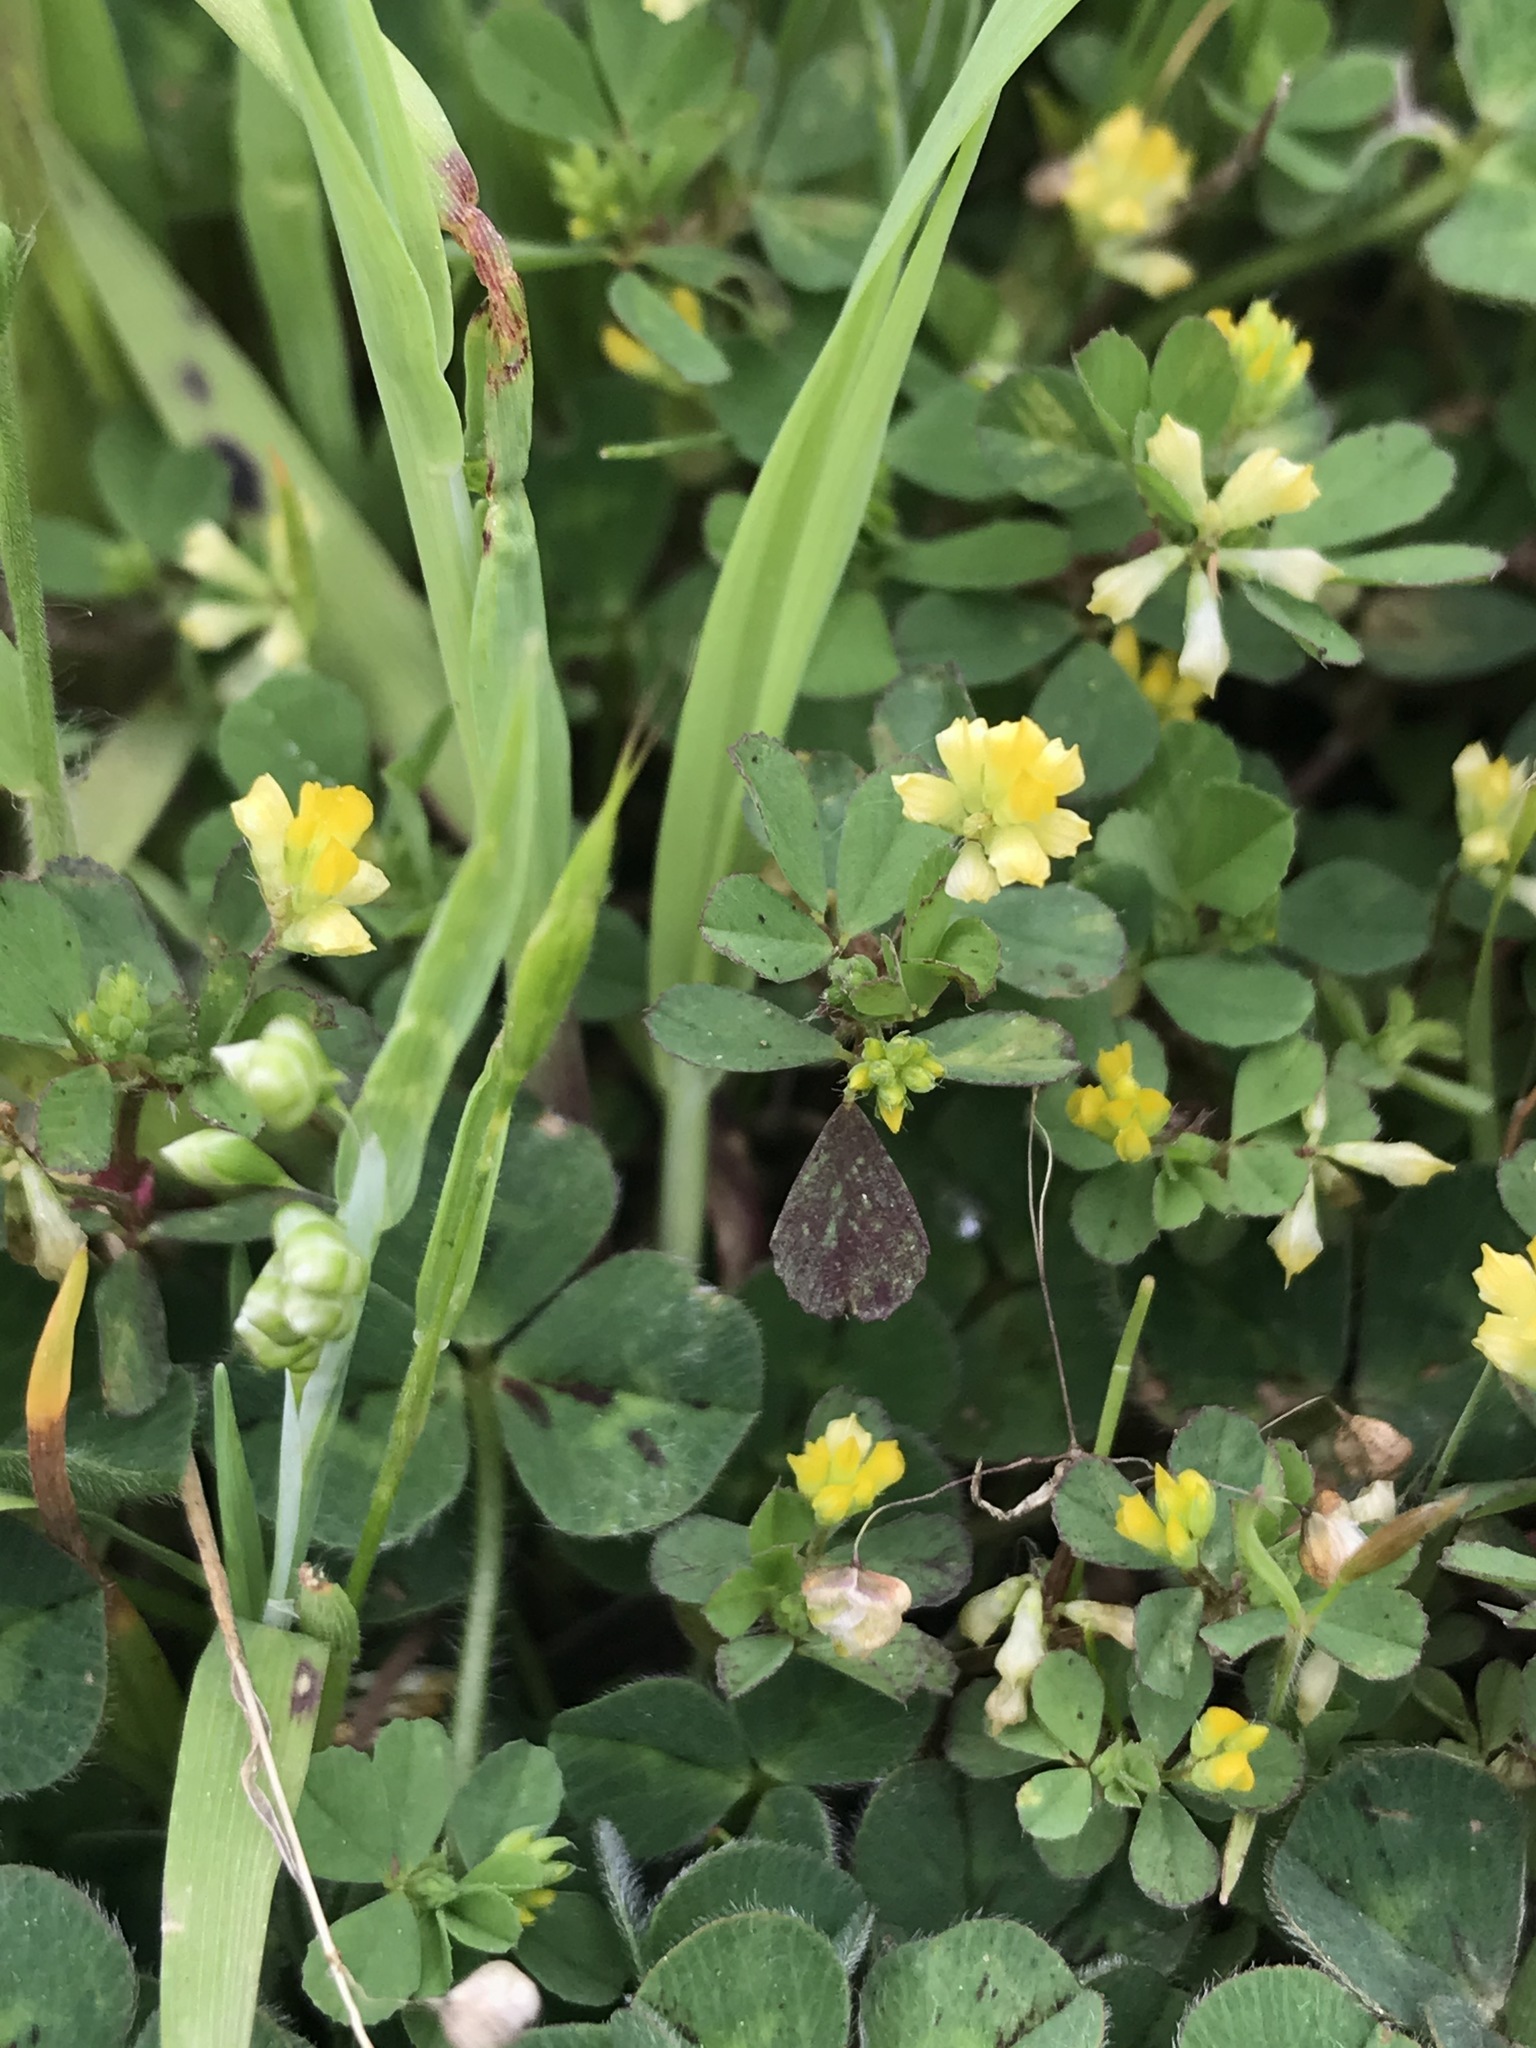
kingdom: Plantae
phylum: Tracheophyta
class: Magnoliopsida
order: Fabales
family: Fabaceae
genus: Trifolium
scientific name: Trifolium dubium
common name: Suckling clover
